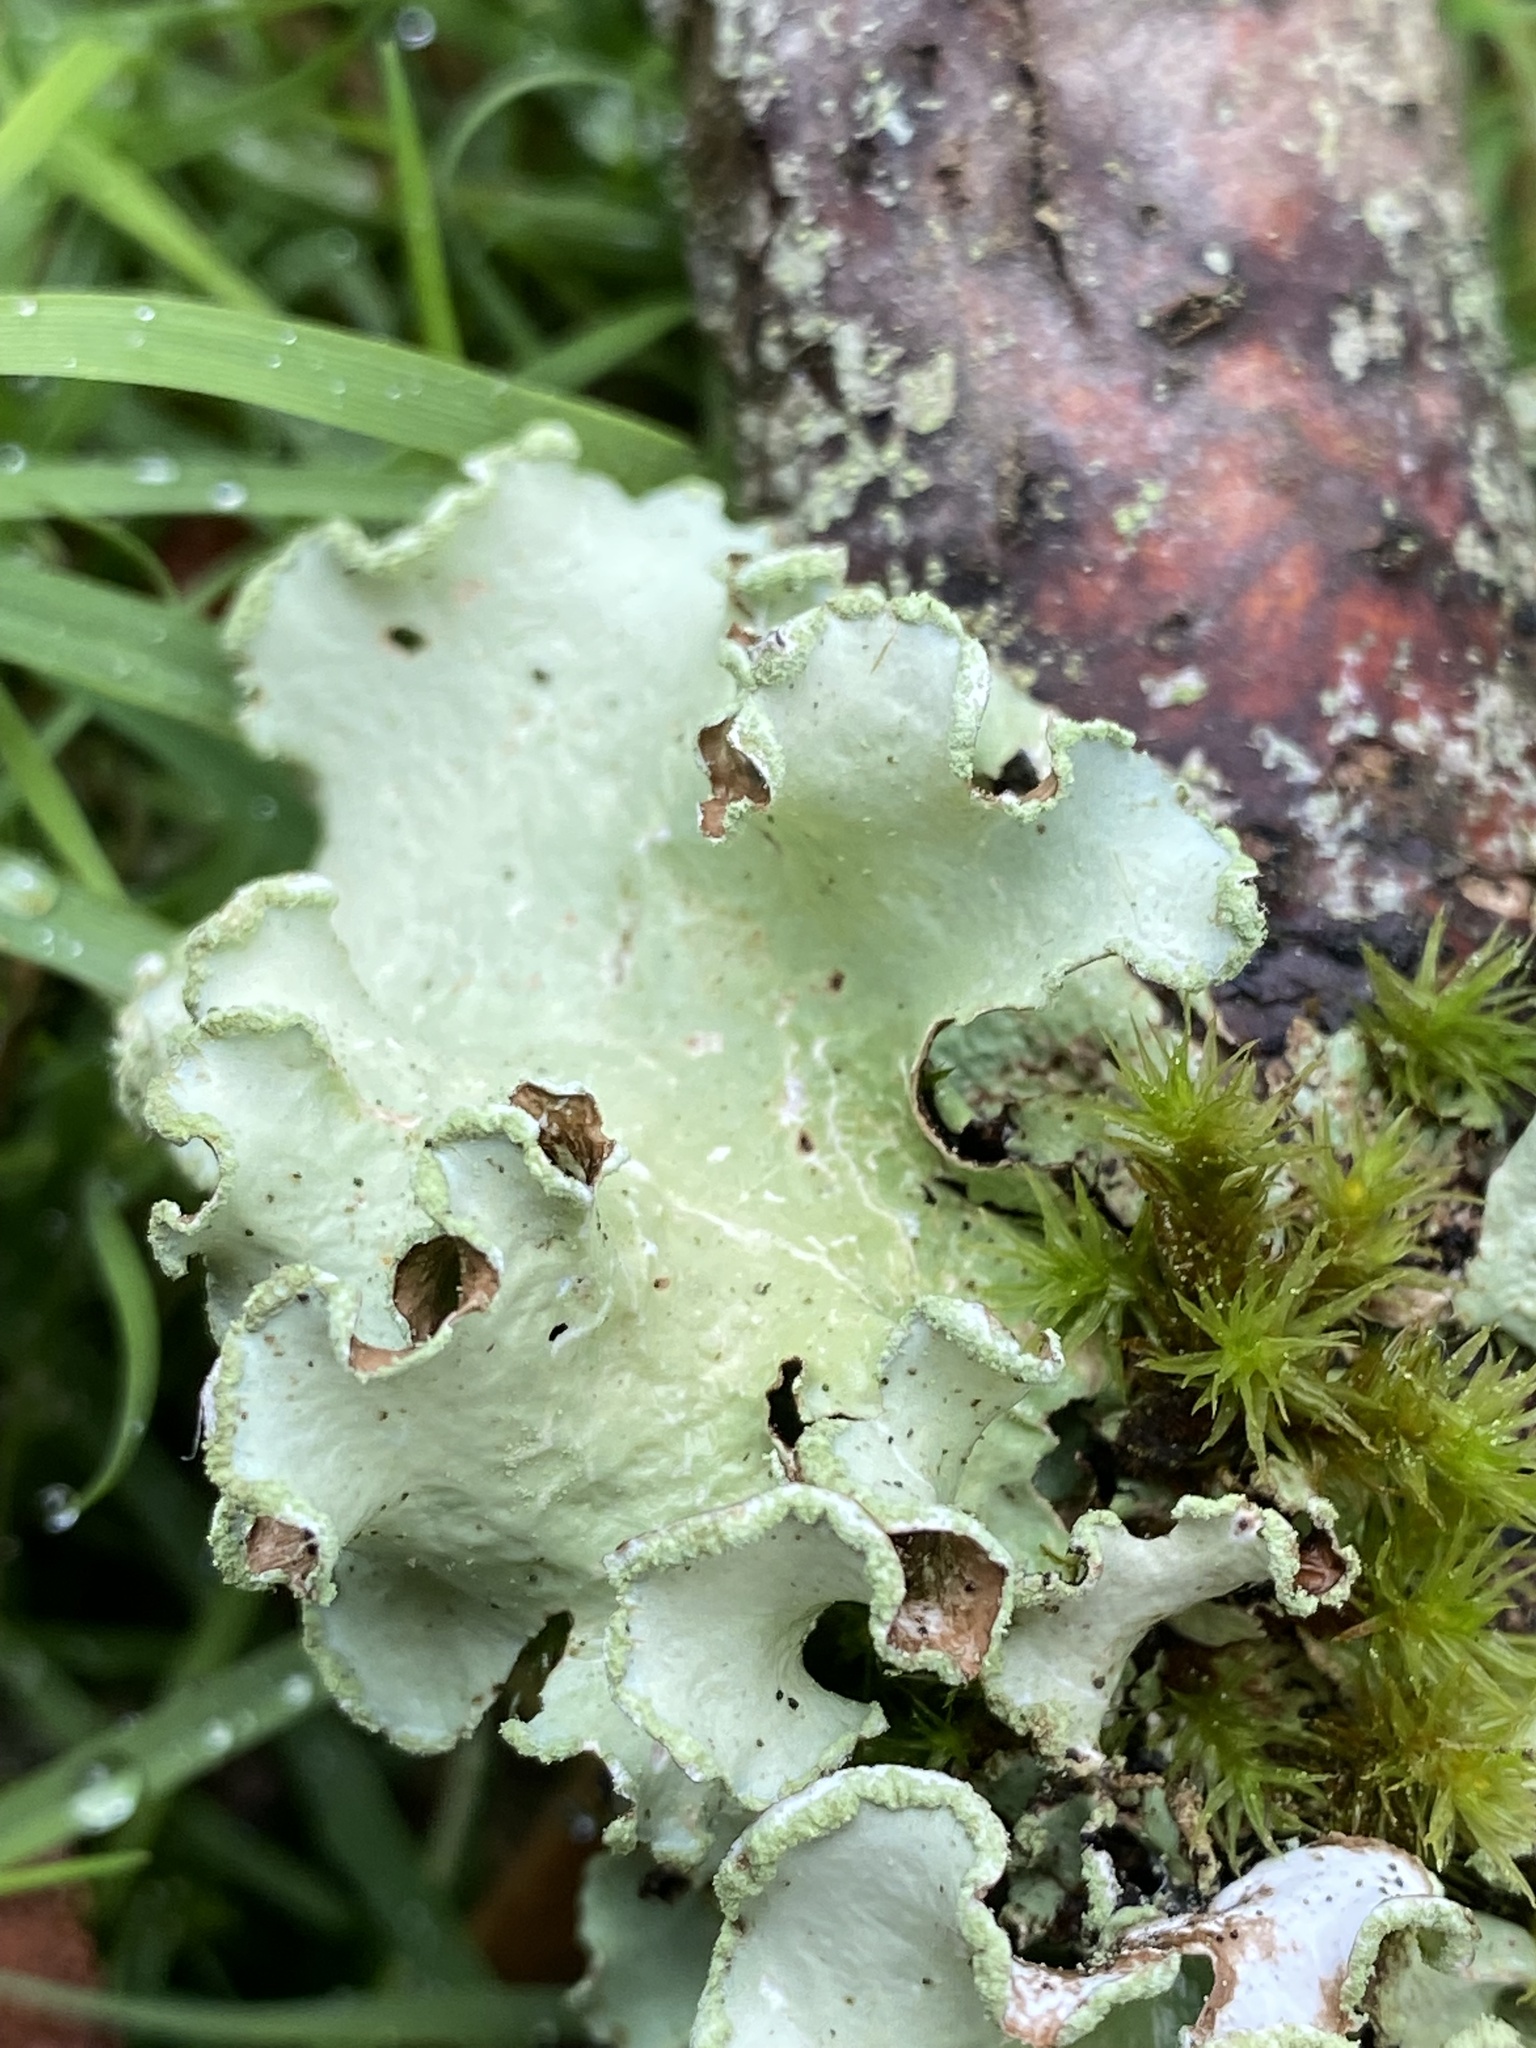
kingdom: Fungi
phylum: Ascomycota
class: Lecanoromycetes
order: Lecanorales
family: Parmeliaceae
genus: Cetrelia
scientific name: Cetrelia cetrarioides
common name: Speckled iceland lichen
